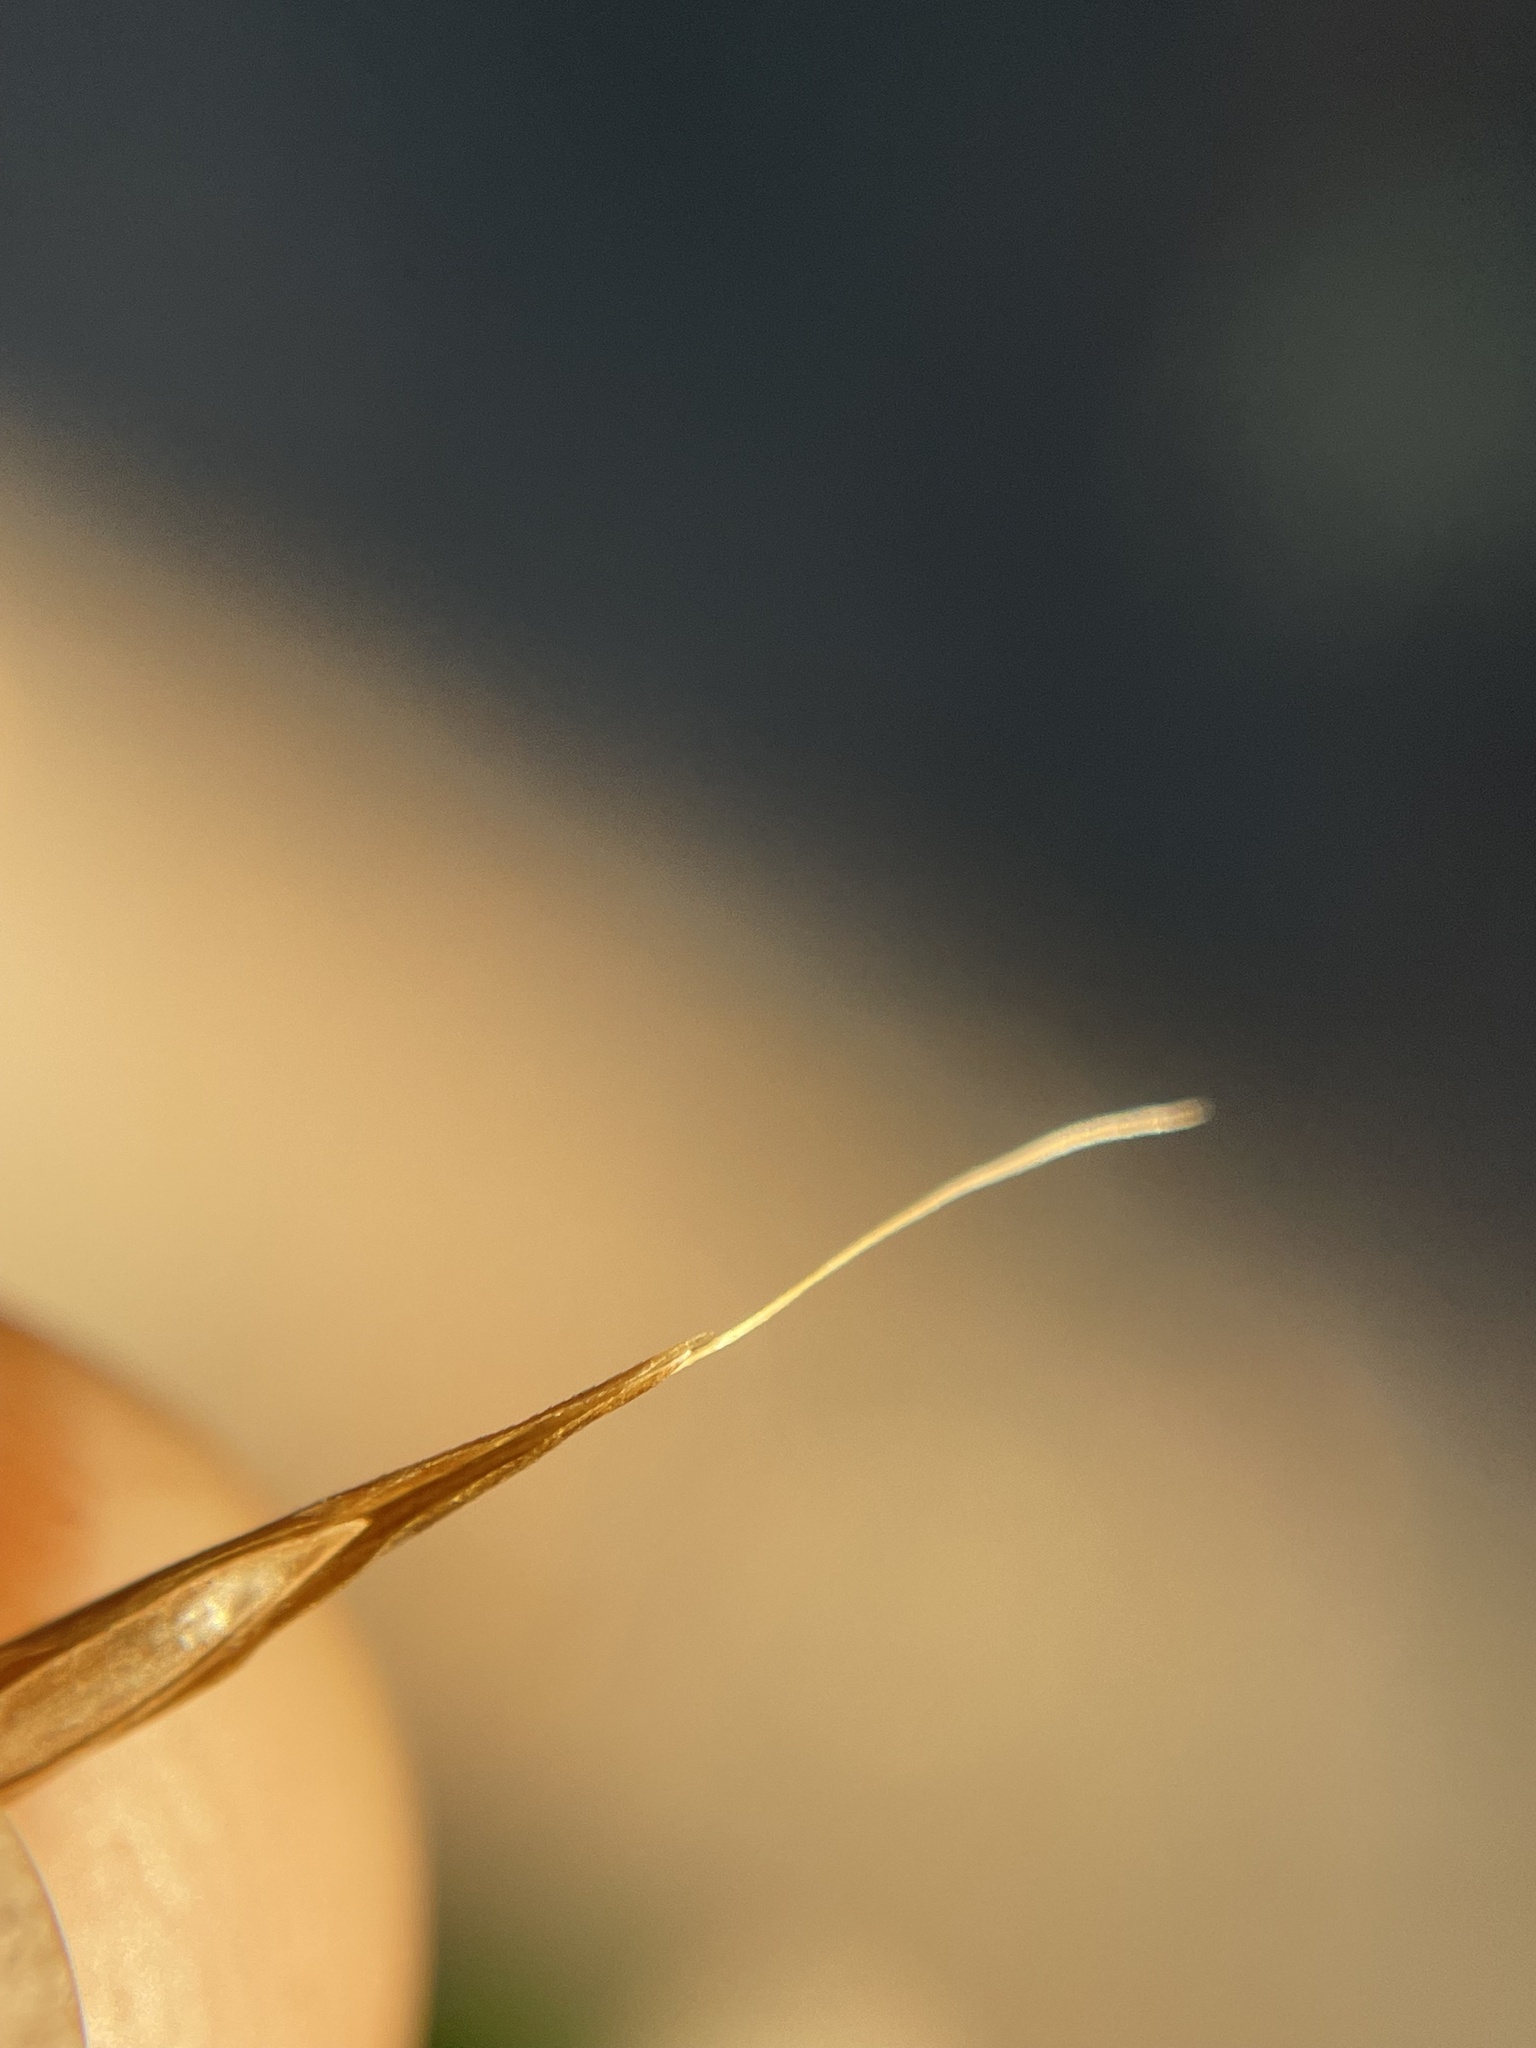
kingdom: Plantae
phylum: Tracheophyta
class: Liliopsida
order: Poales
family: Poaceae
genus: Melica
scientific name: Melica smithii
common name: Smith's melic
